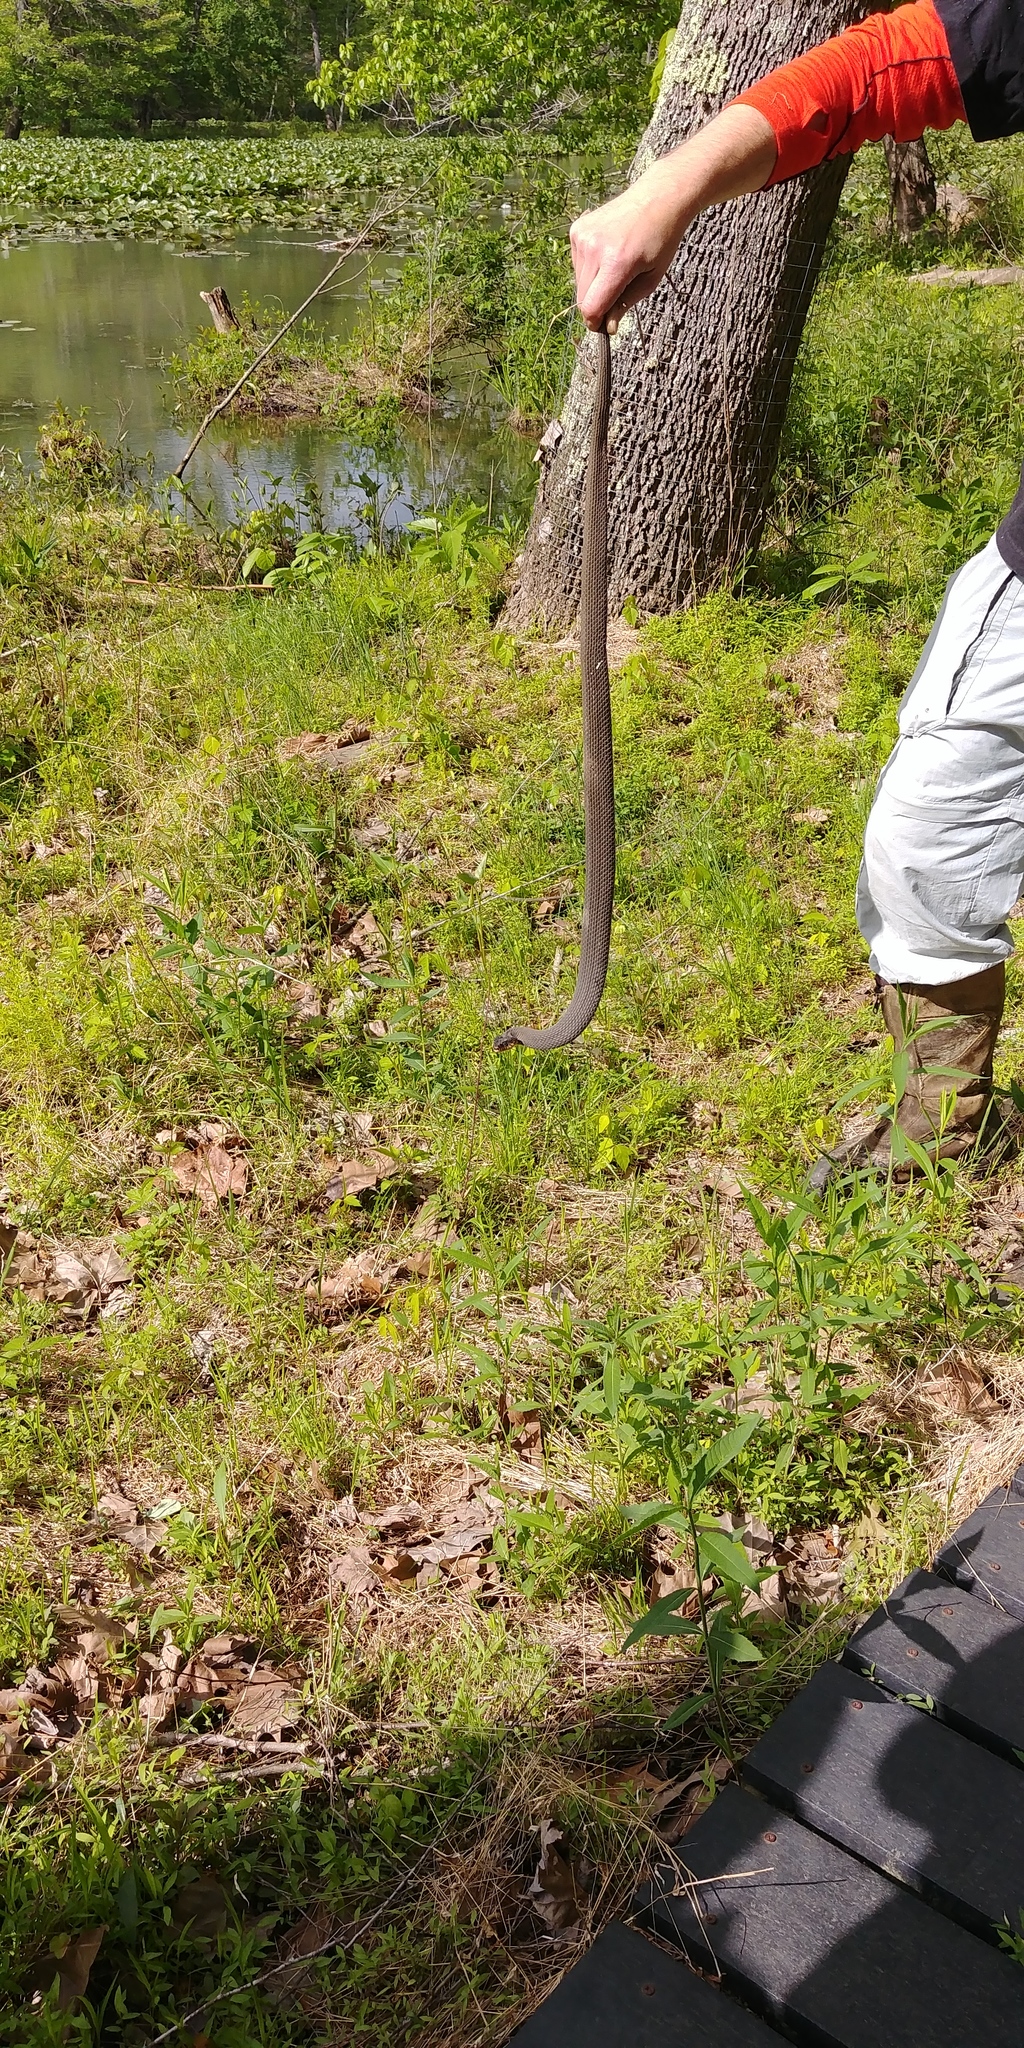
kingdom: Animalia
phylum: Chordata
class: Squamata
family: Colubridae
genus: Nerodia
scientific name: Nerodia erythrogaster
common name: Plainbelly water snake
